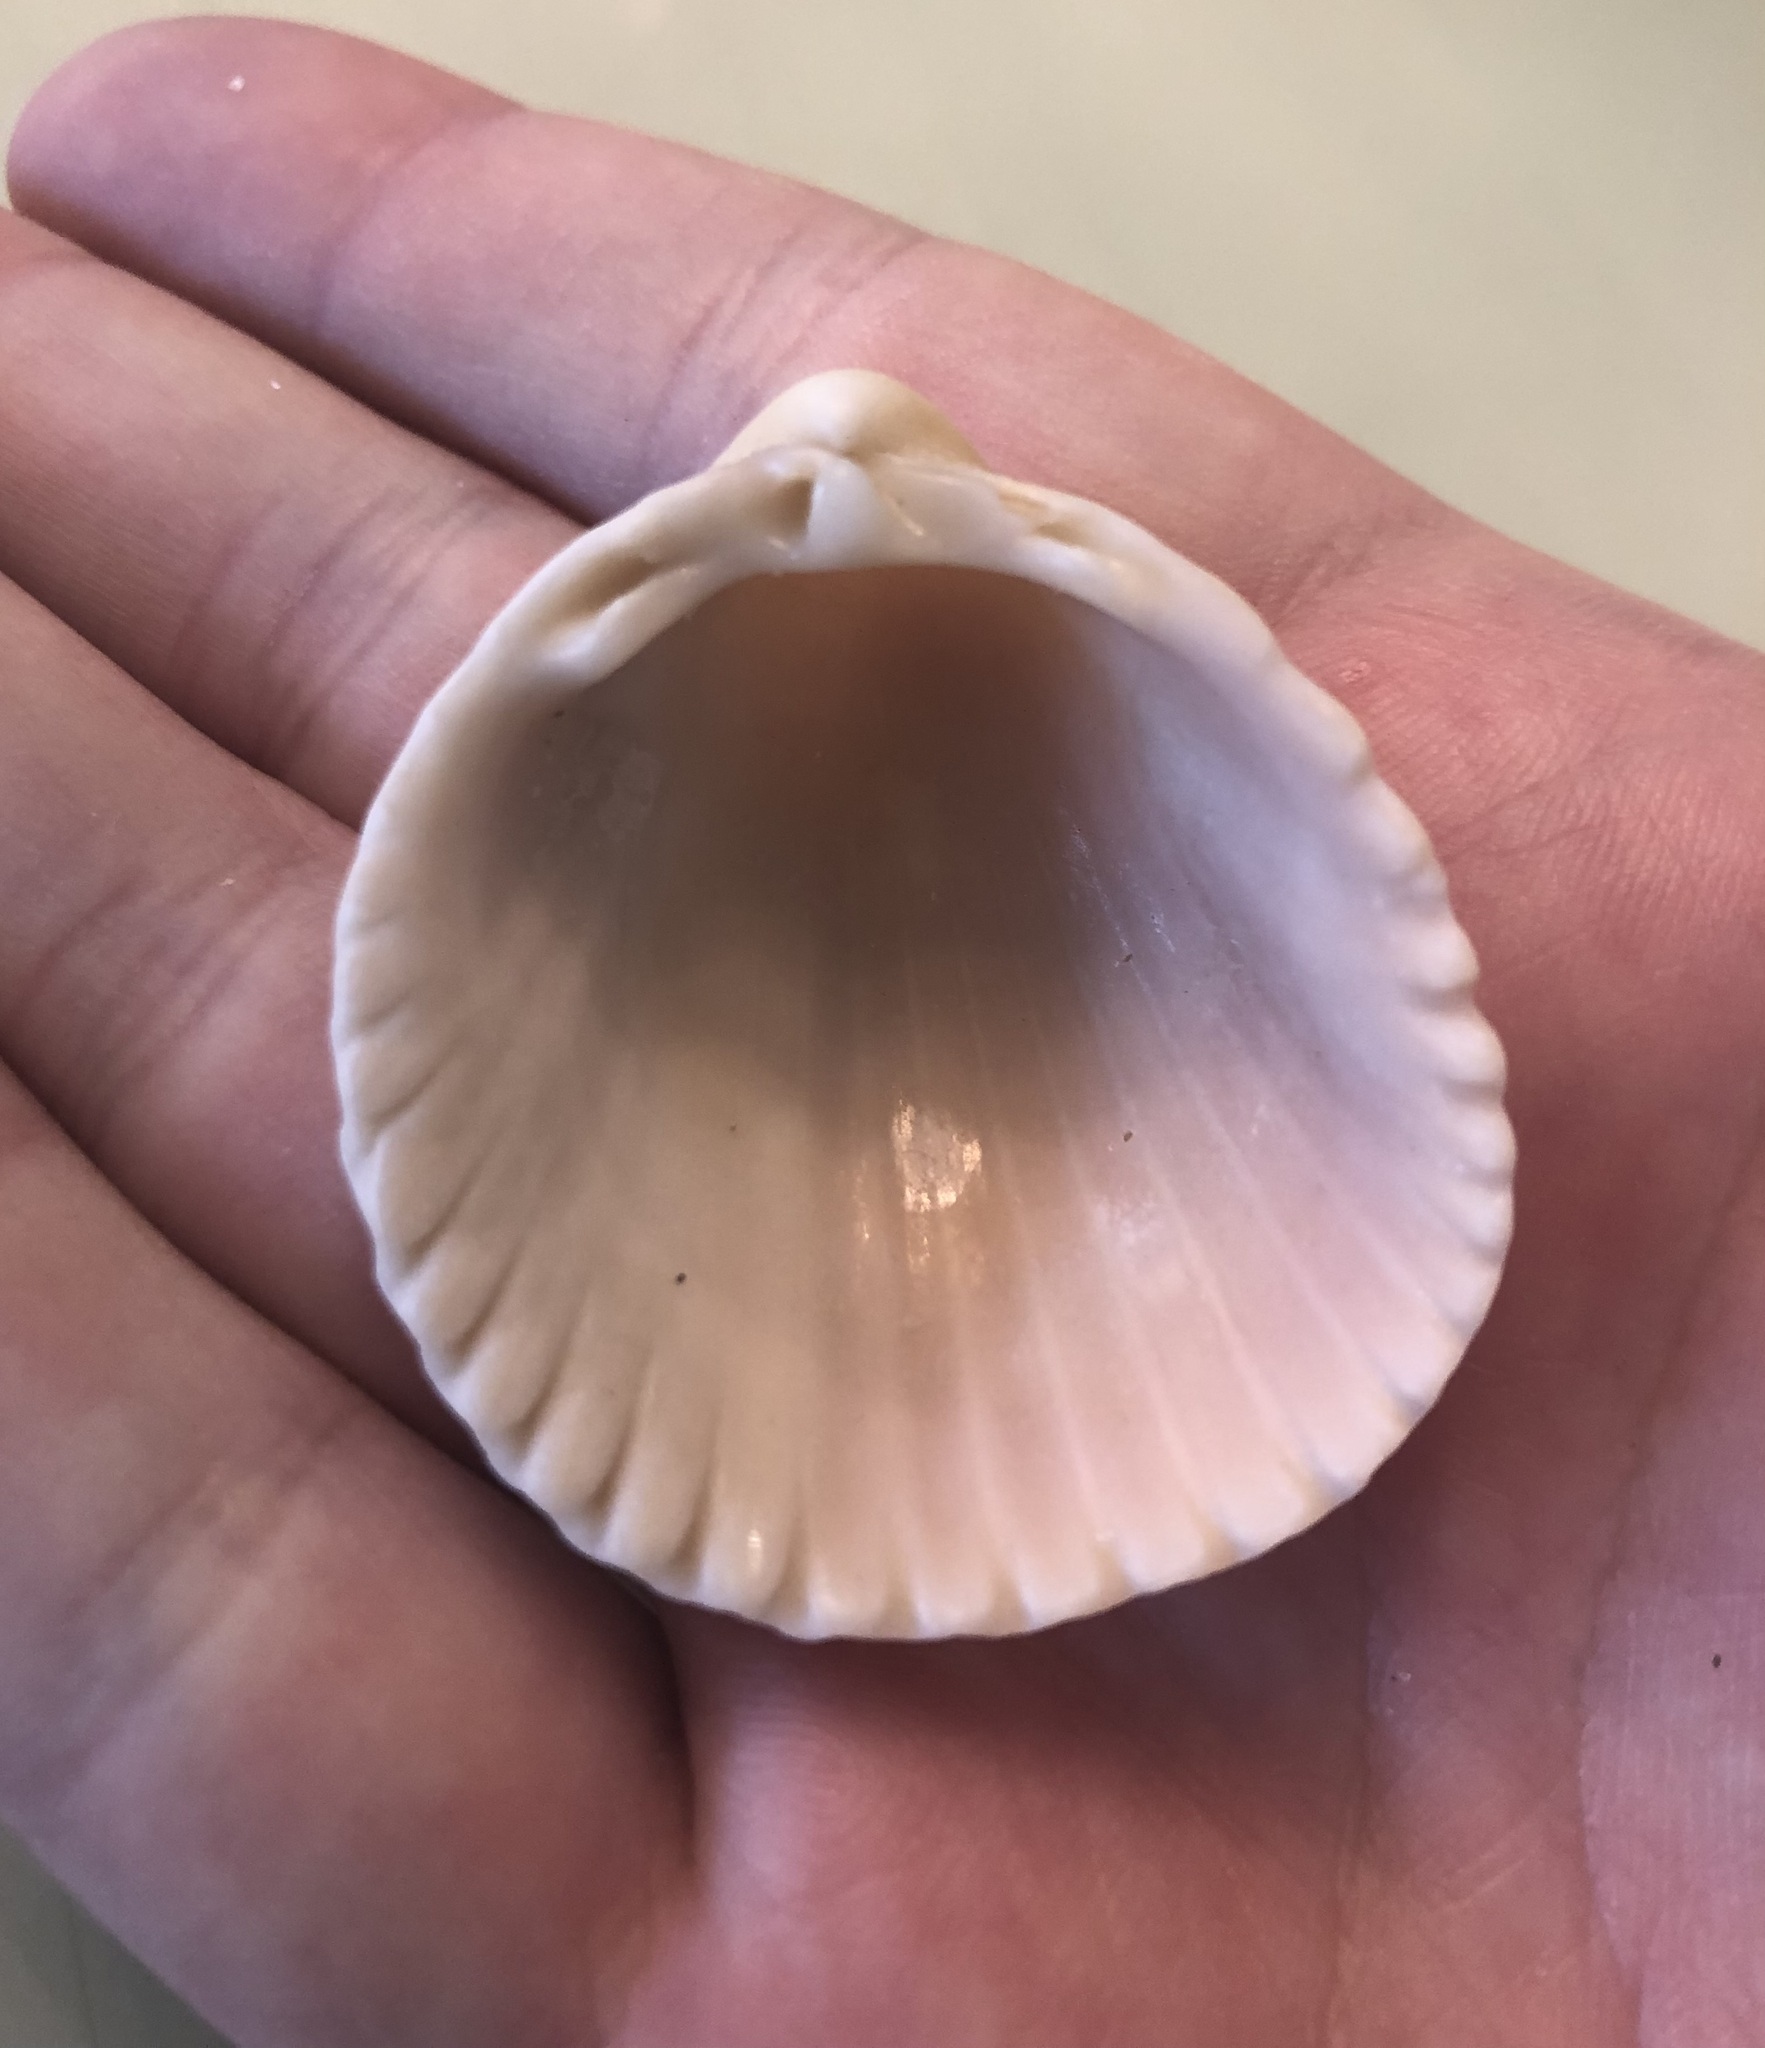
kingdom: Animalia
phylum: Mollusca
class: Bivalvia
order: Cardiida
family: Cardiidae
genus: Trachycardium
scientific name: Trachycardium egmontianum
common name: Florida pricklycockle
